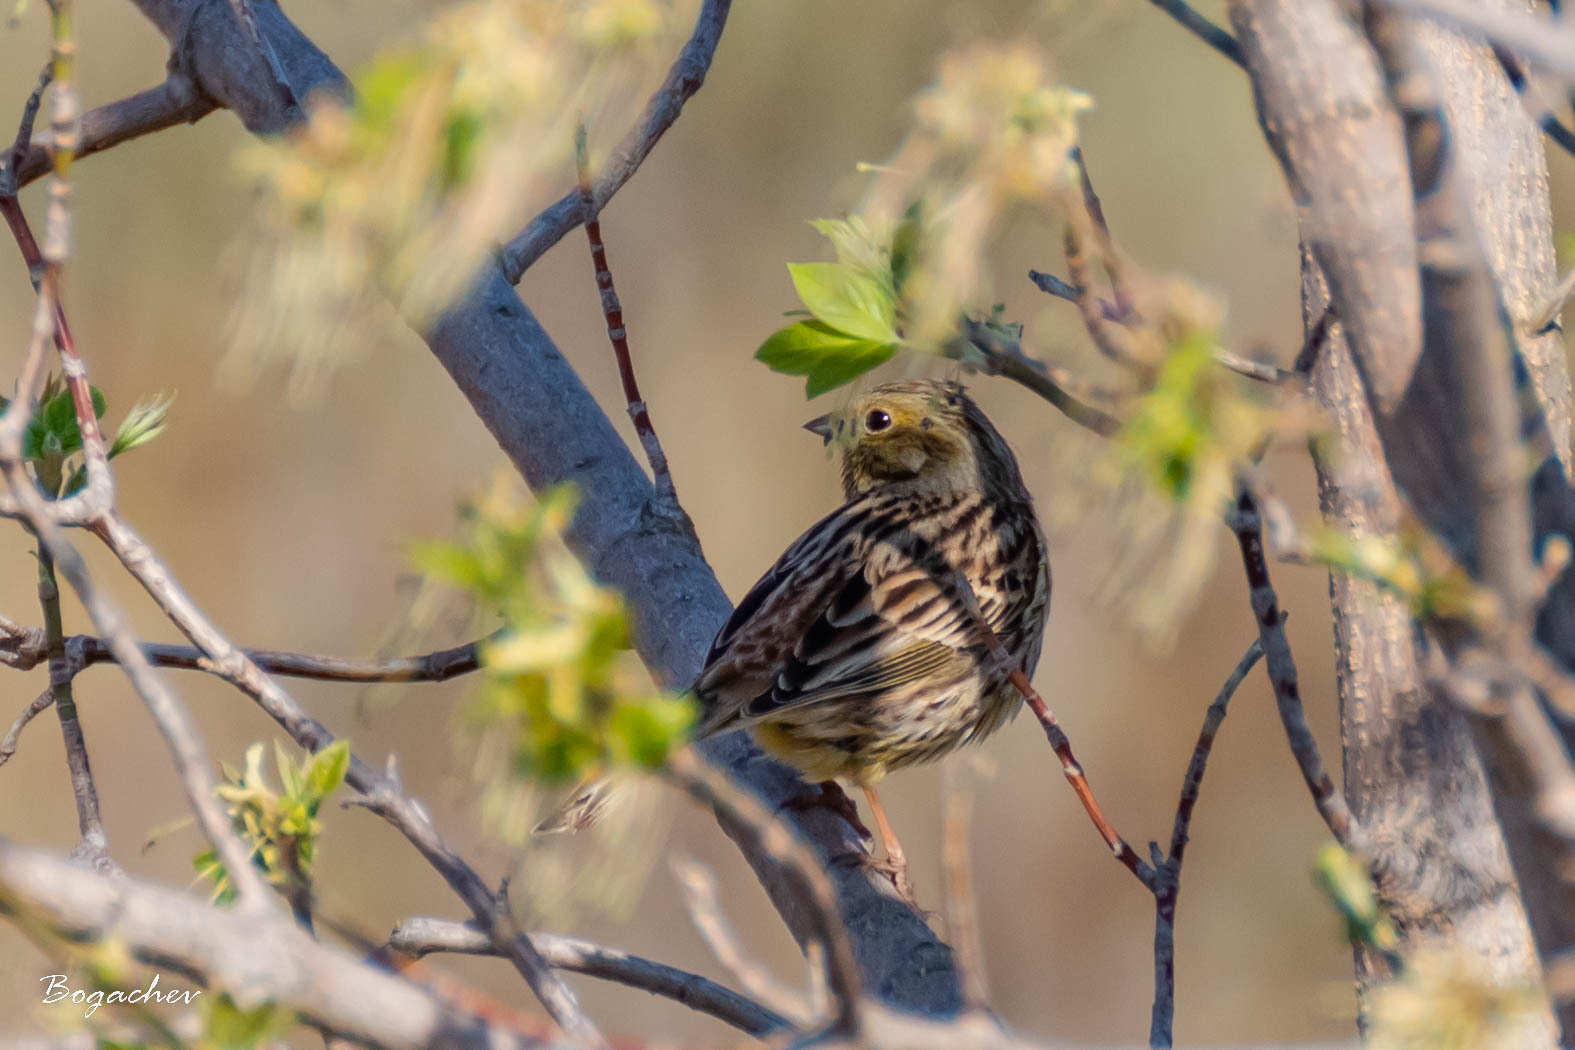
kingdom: Animalia
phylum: Chordata
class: Aves
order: Passeriformes
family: Emberizidae
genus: Emberiza
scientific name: Emberiza citrinella
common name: Yellowhammer
